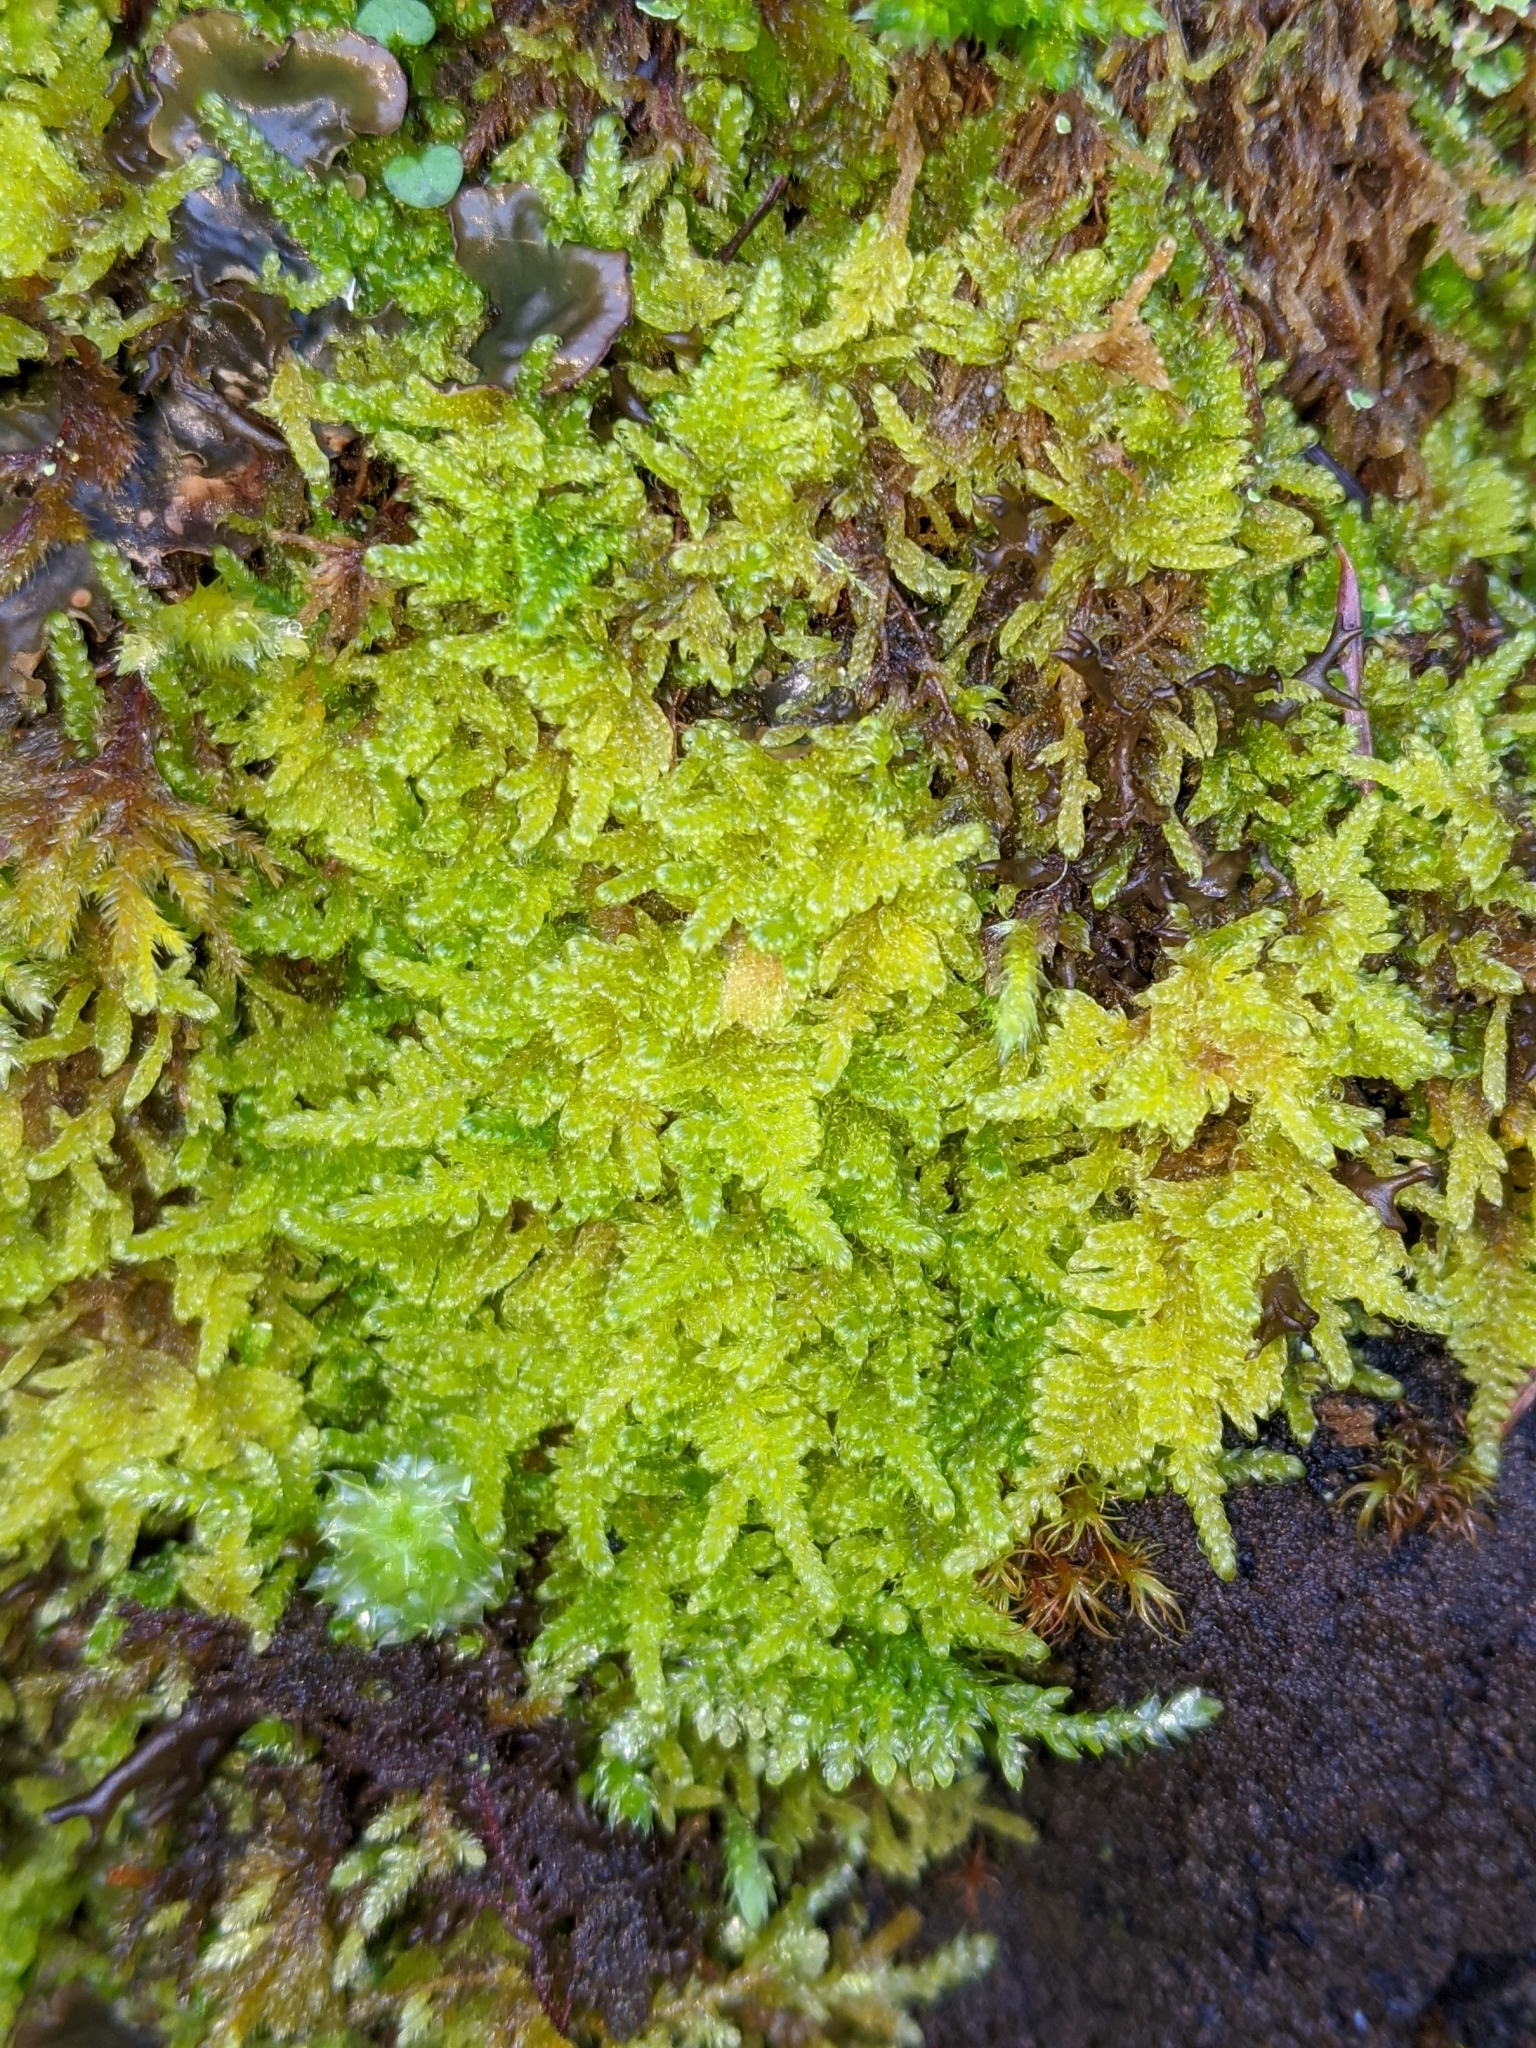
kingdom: Plantae
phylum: Bryophyta
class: Bryopsida
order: Hypnales
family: Stereodontaceae
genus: Stereodon
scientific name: Stereodon subimponens
